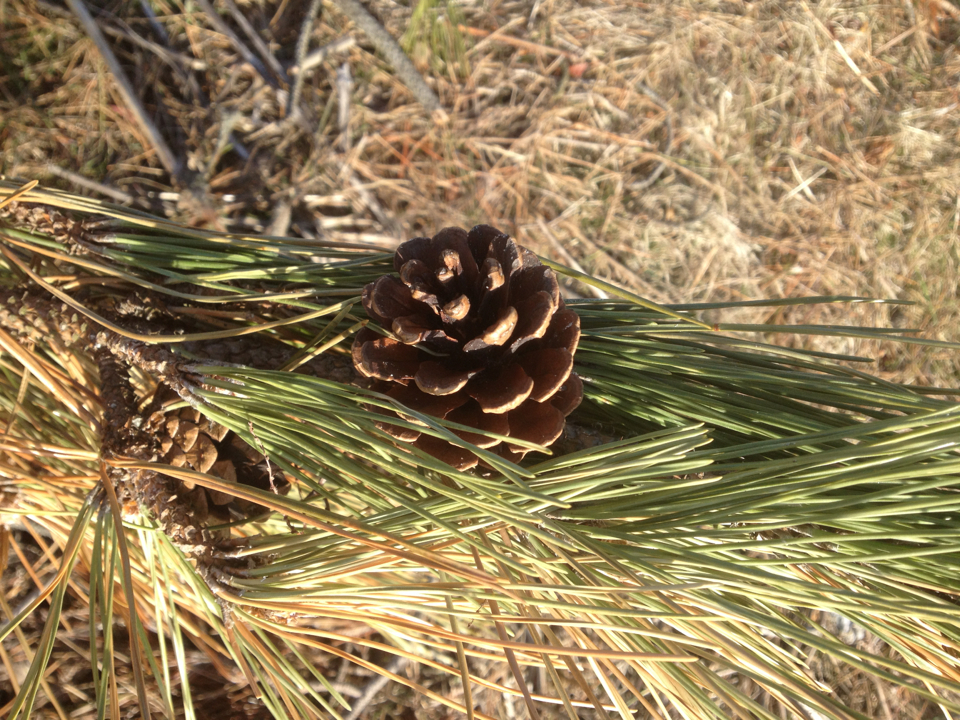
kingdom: Plantae
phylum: Tracheophyta
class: Pinopsida
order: Pinales
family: Pinaceae
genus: Pinus
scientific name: Pinus rigida
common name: Pitch pine
